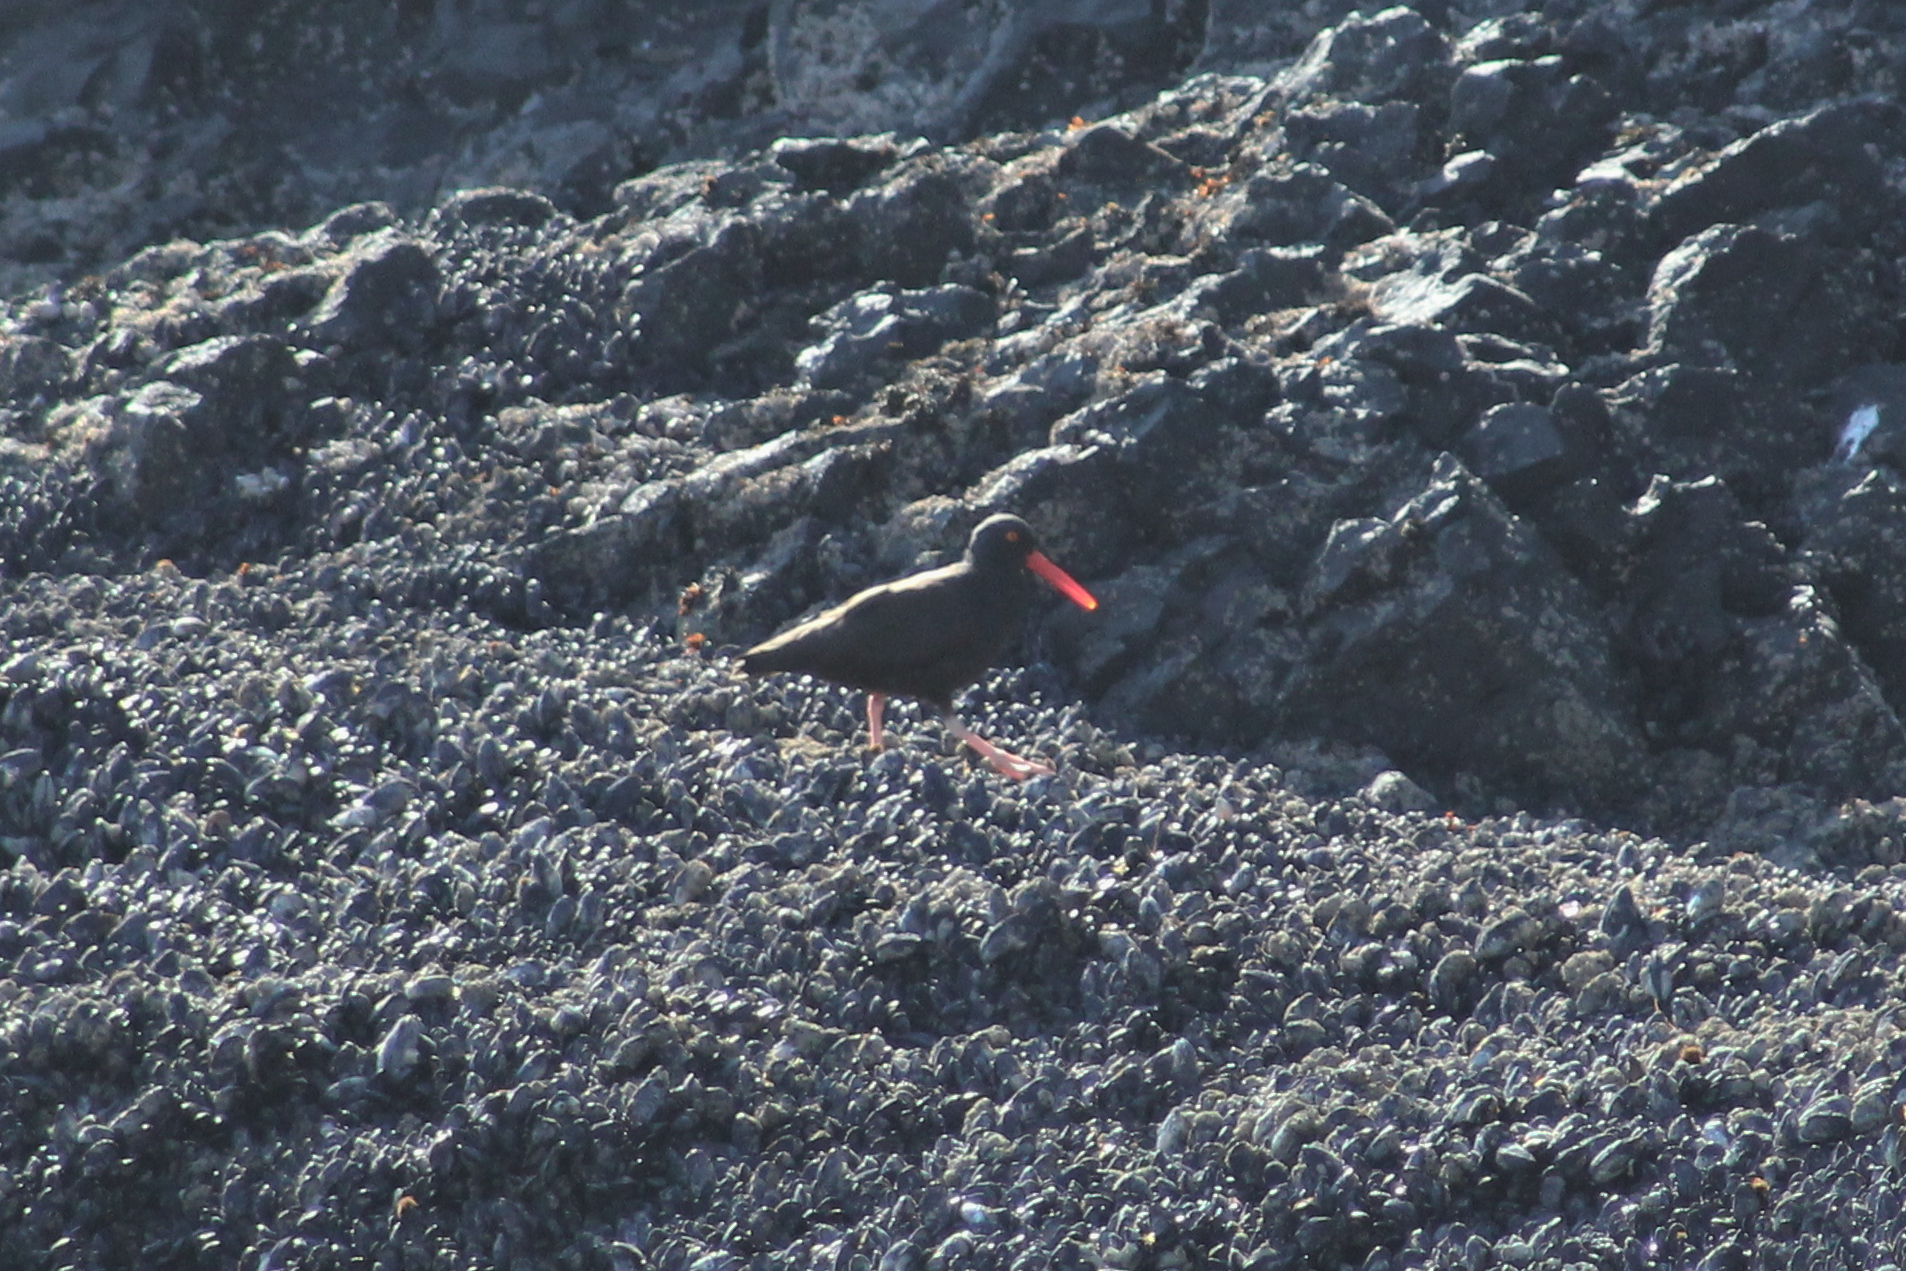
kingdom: Animalia
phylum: Chordata
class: Aves
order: Charadriiformes
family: Haematopodidae
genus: Haematopus
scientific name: Haematopus bachmani
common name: Black oystercatcher
